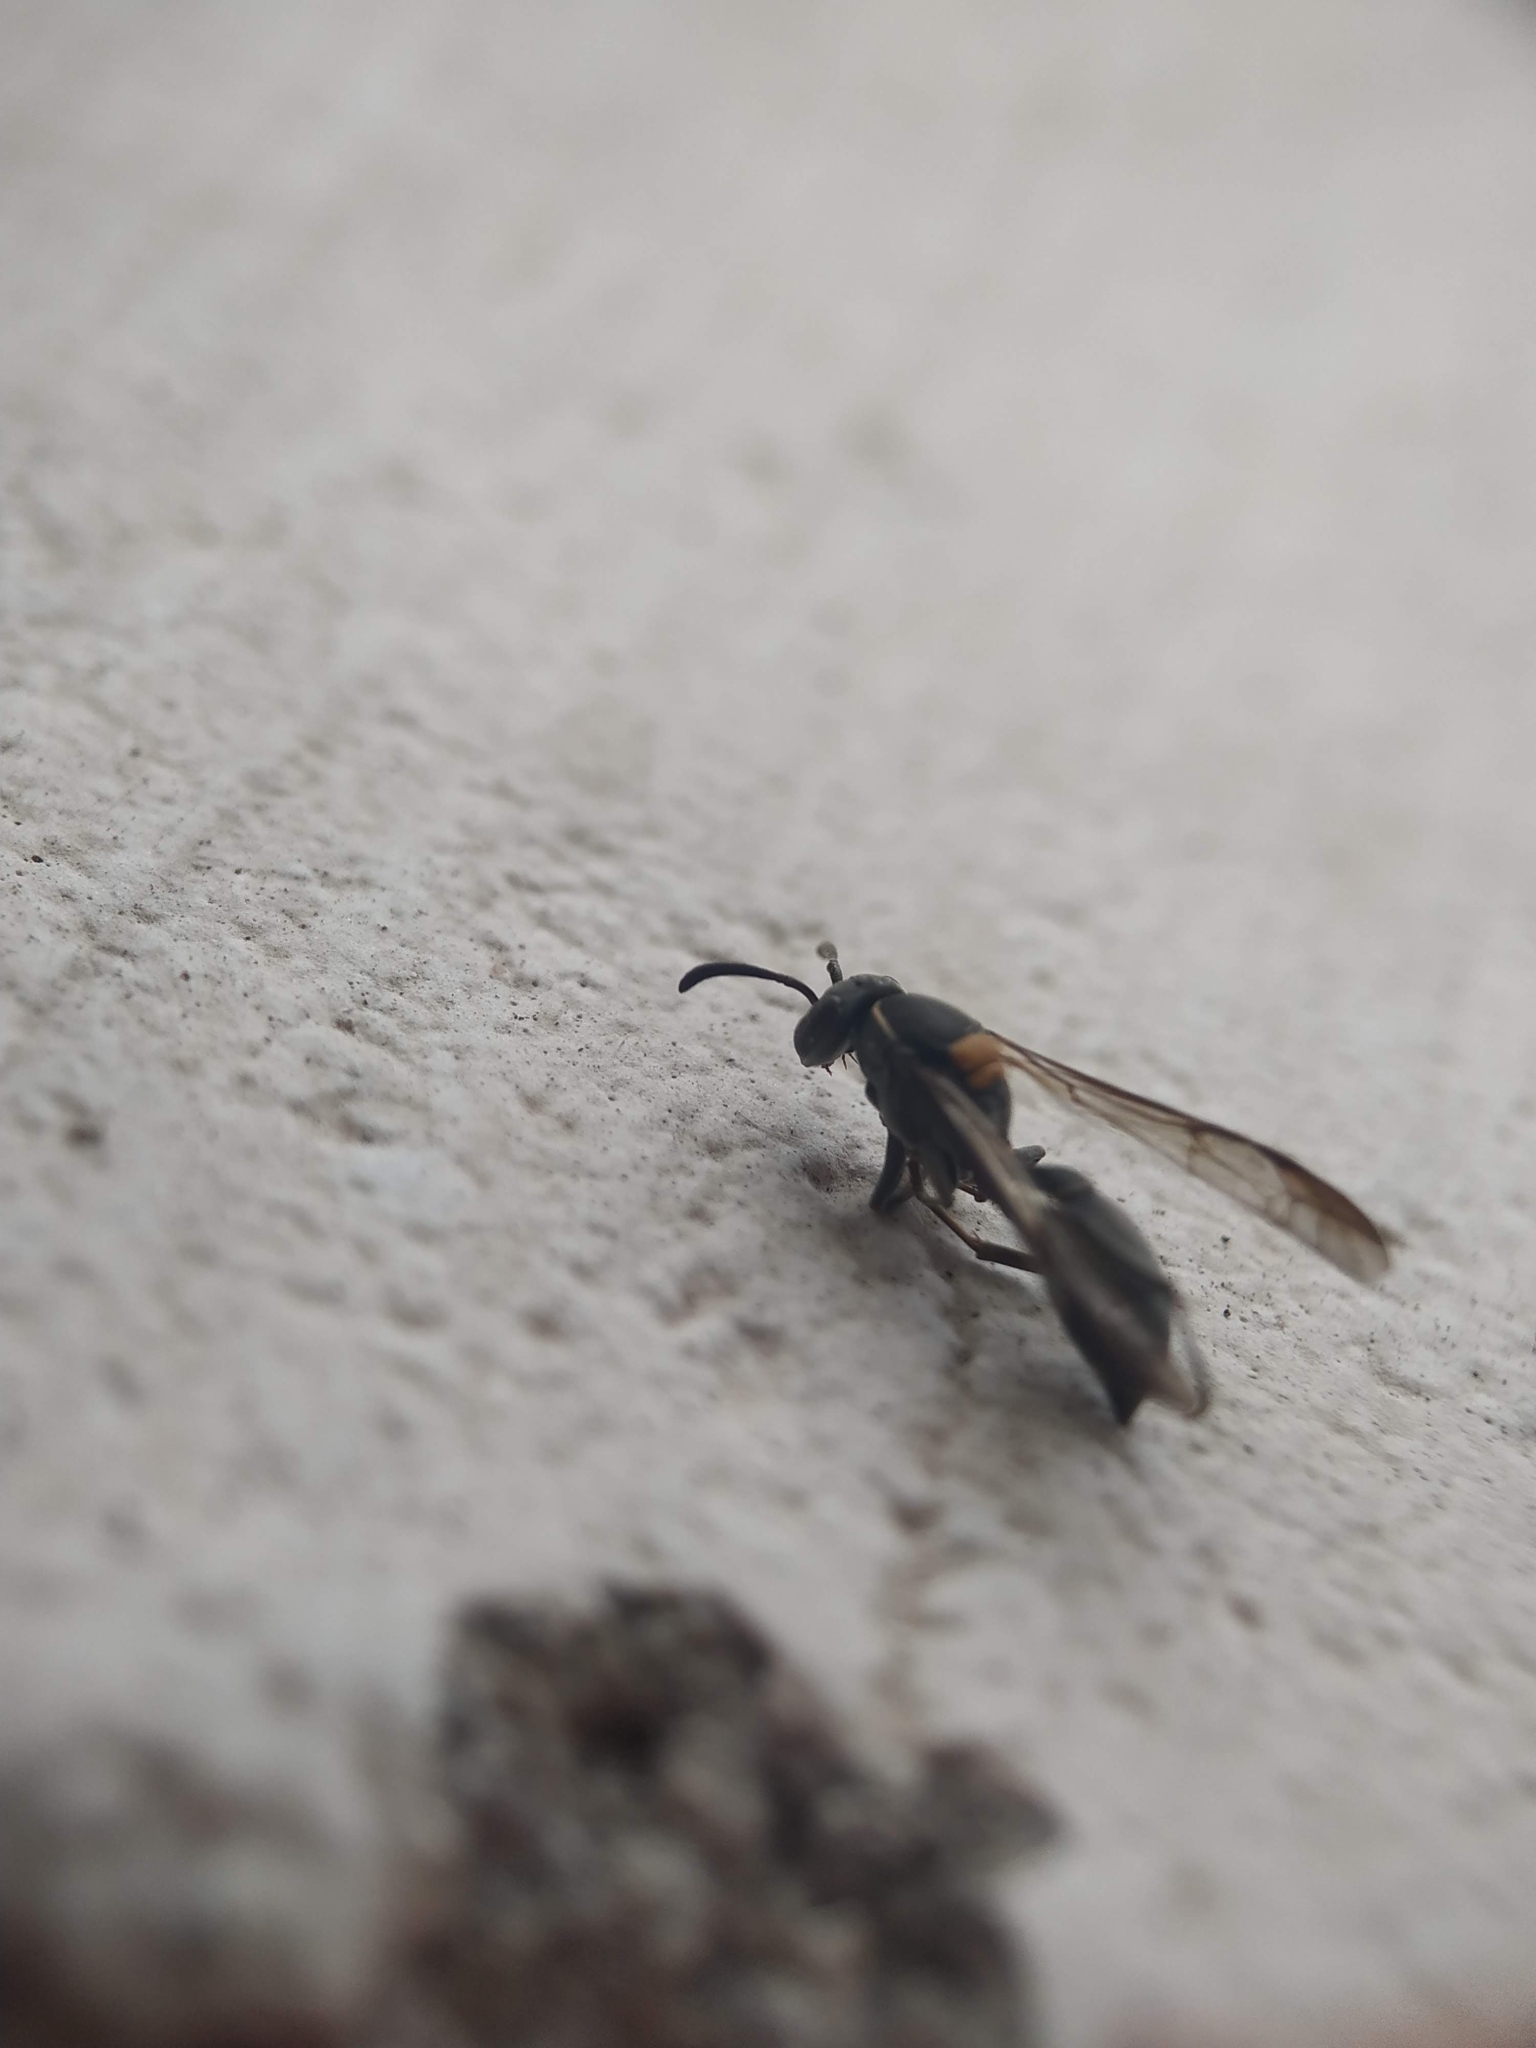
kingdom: Animalia
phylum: Arthropoda
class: Insecta
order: Hymenoptera
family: Eumenidae
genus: Polybia
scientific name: Polybia paulista
